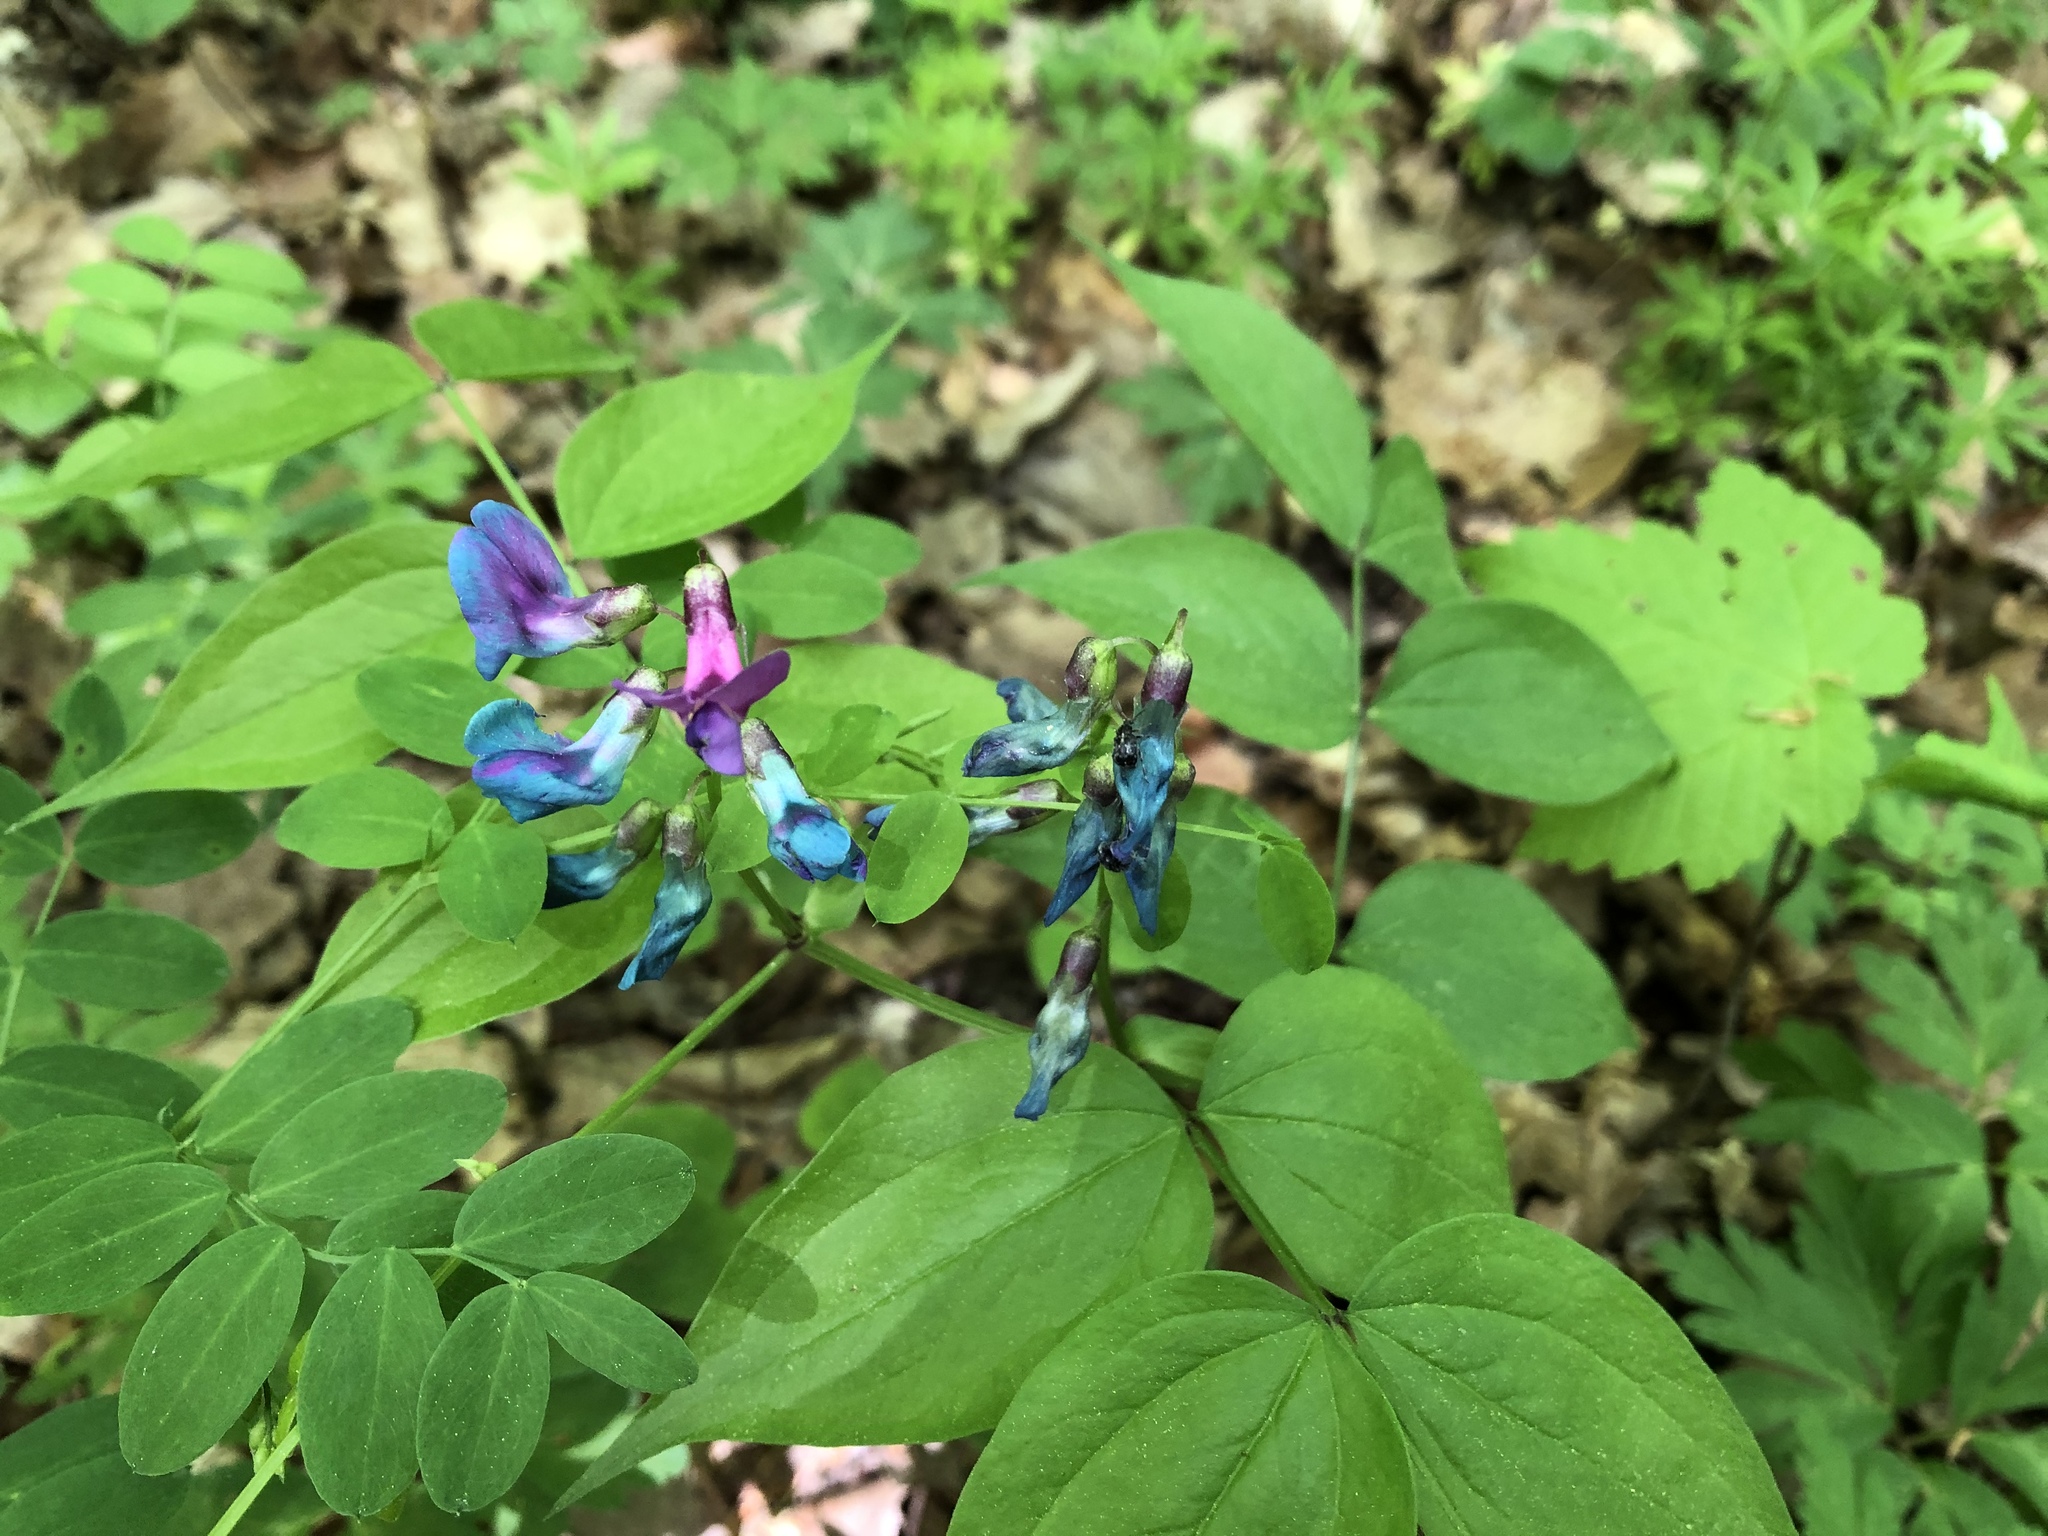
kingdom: Plantae
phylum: Tracheophyta
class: Magnoliopsida
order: Fabales
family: Fabaceae
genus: Lathyrus
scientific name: Lathyrus vernus
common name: Spring pea
